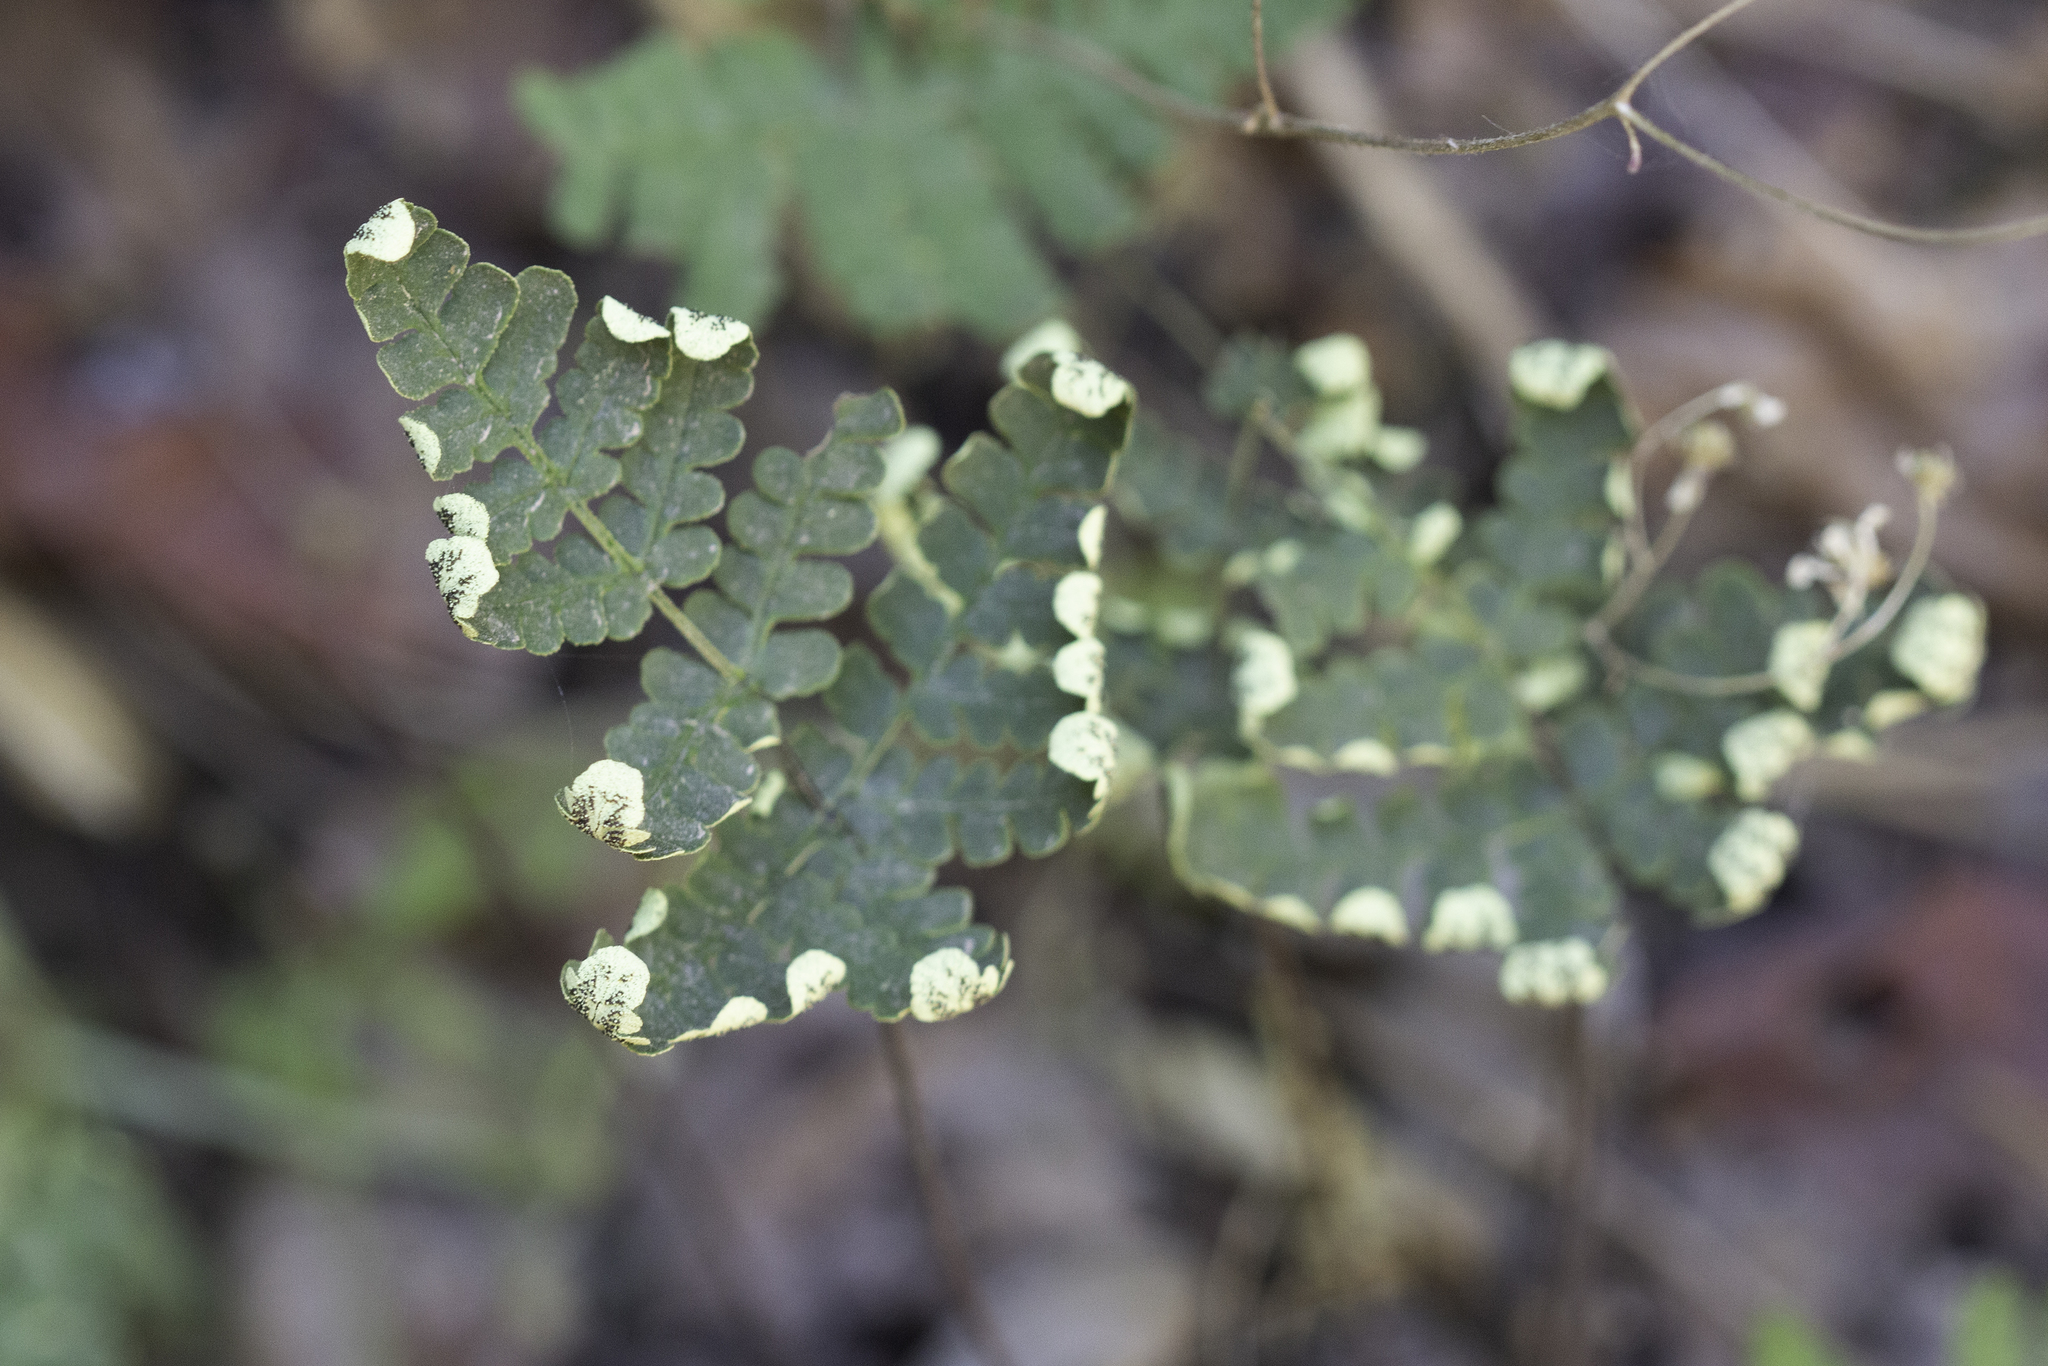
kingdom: Plantae
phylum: Tracheophyta
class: Polypodiopsida
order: Polypodiales
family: Pteridaceae
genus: Pentagramma
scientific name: Pentagramma triangularis
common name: Gold fern
